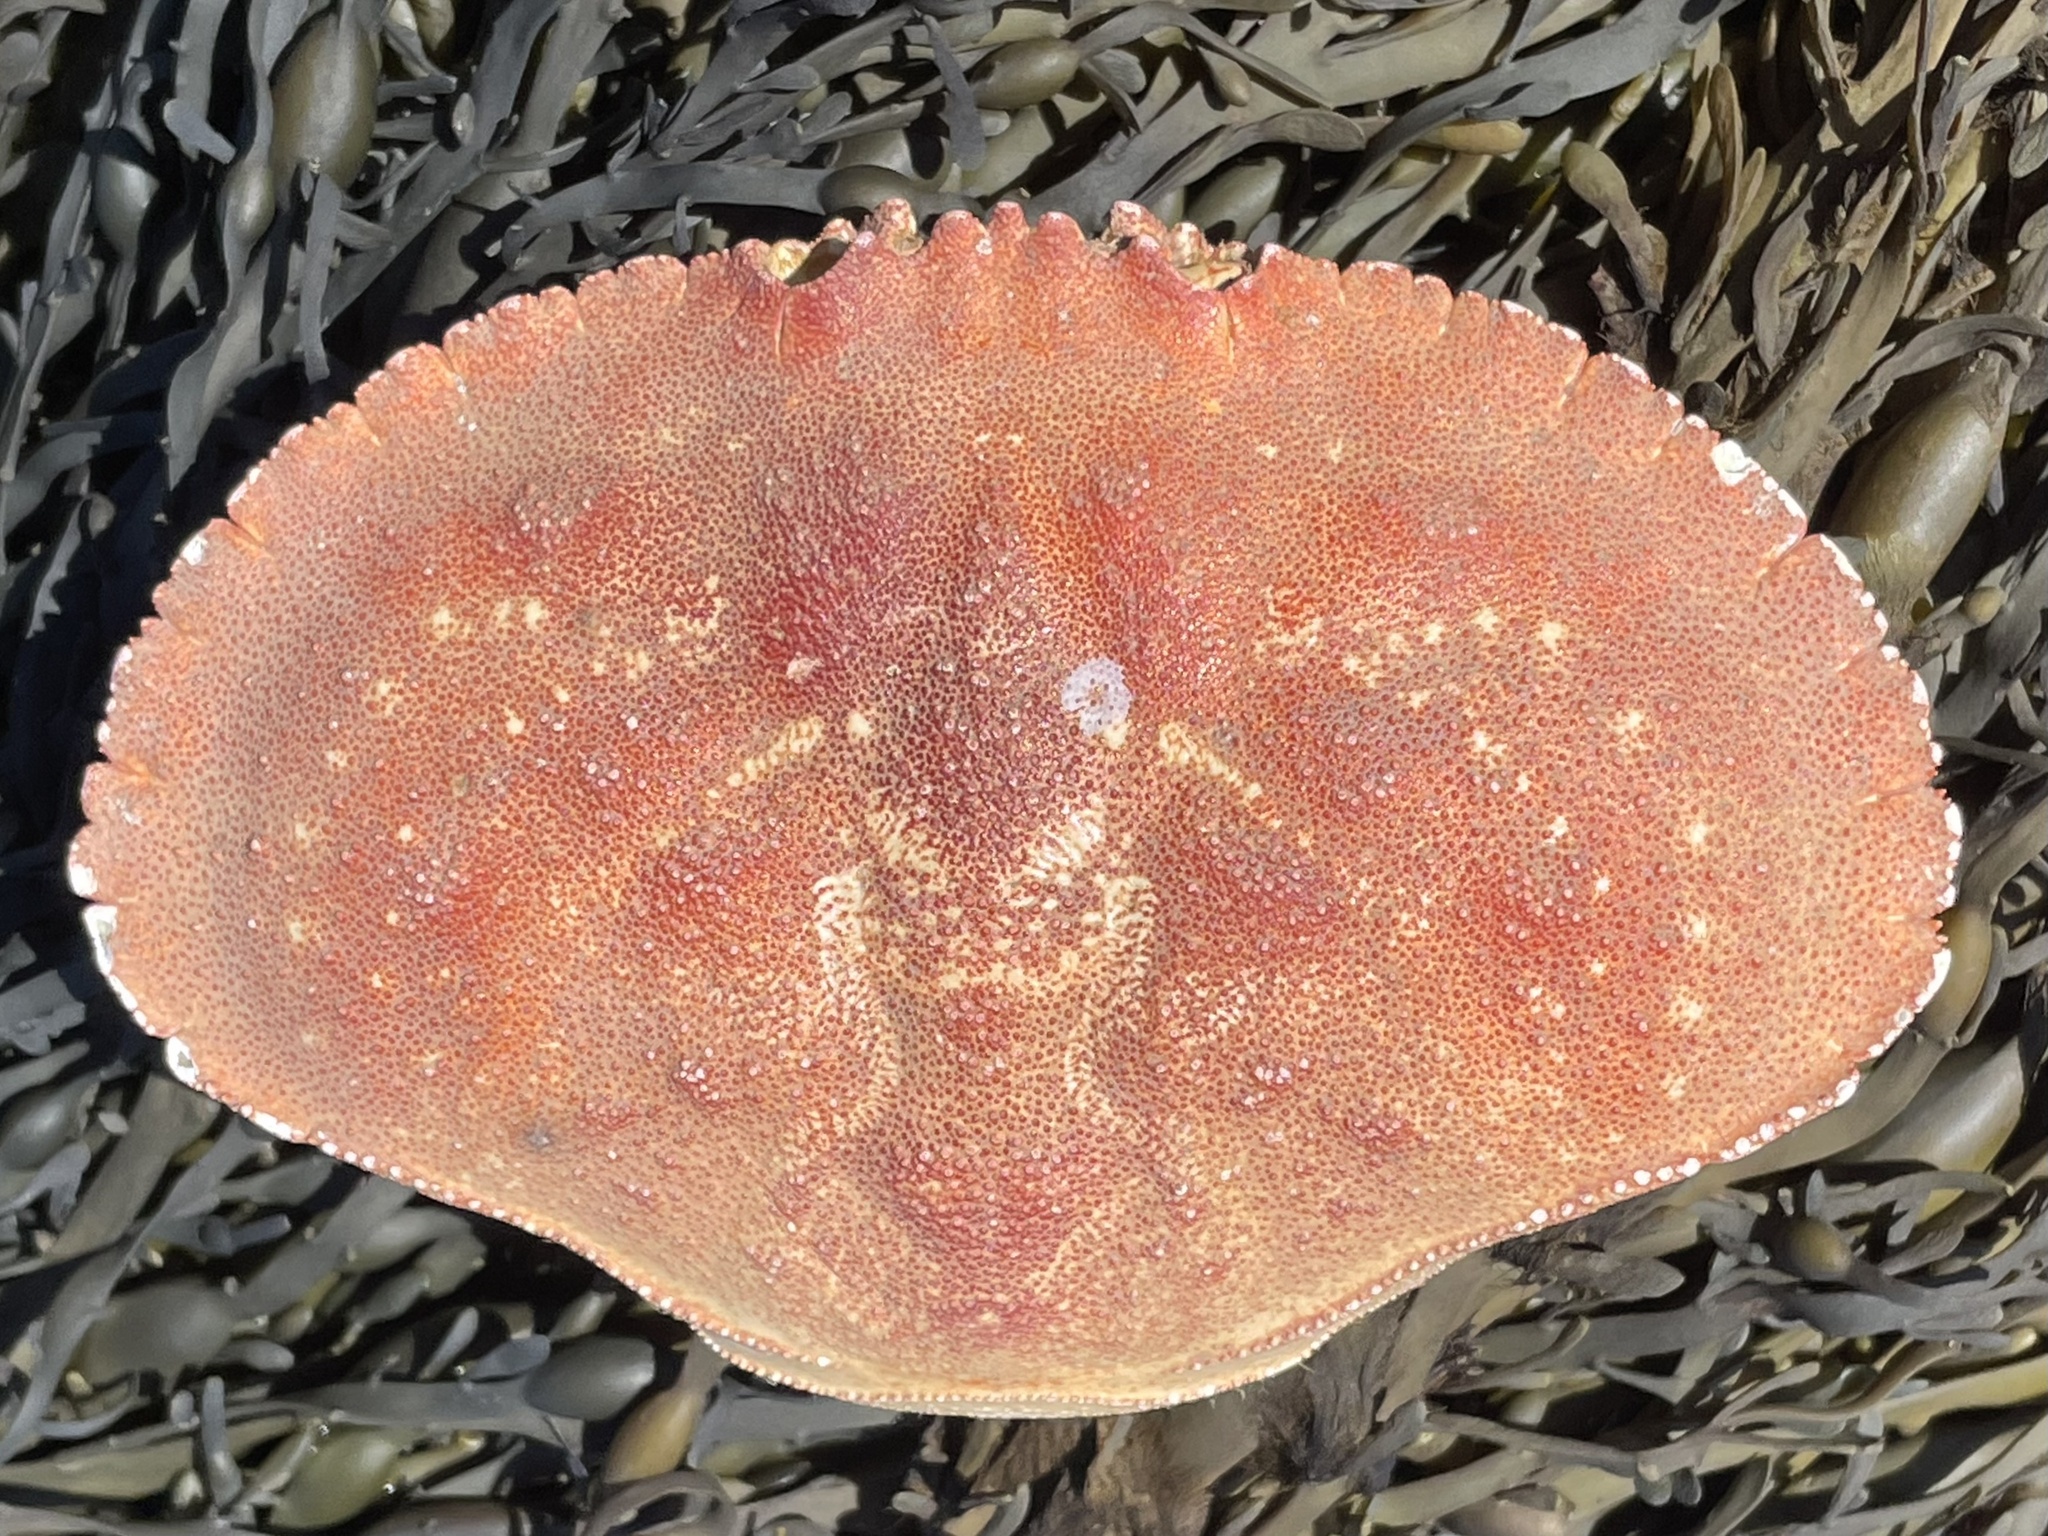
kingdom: Animalia
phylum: Arthropoda
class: Malacostraca
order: Decapoda
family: Cancridae
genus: Cancer
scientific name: Cancer borealis
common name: Jonah crab
